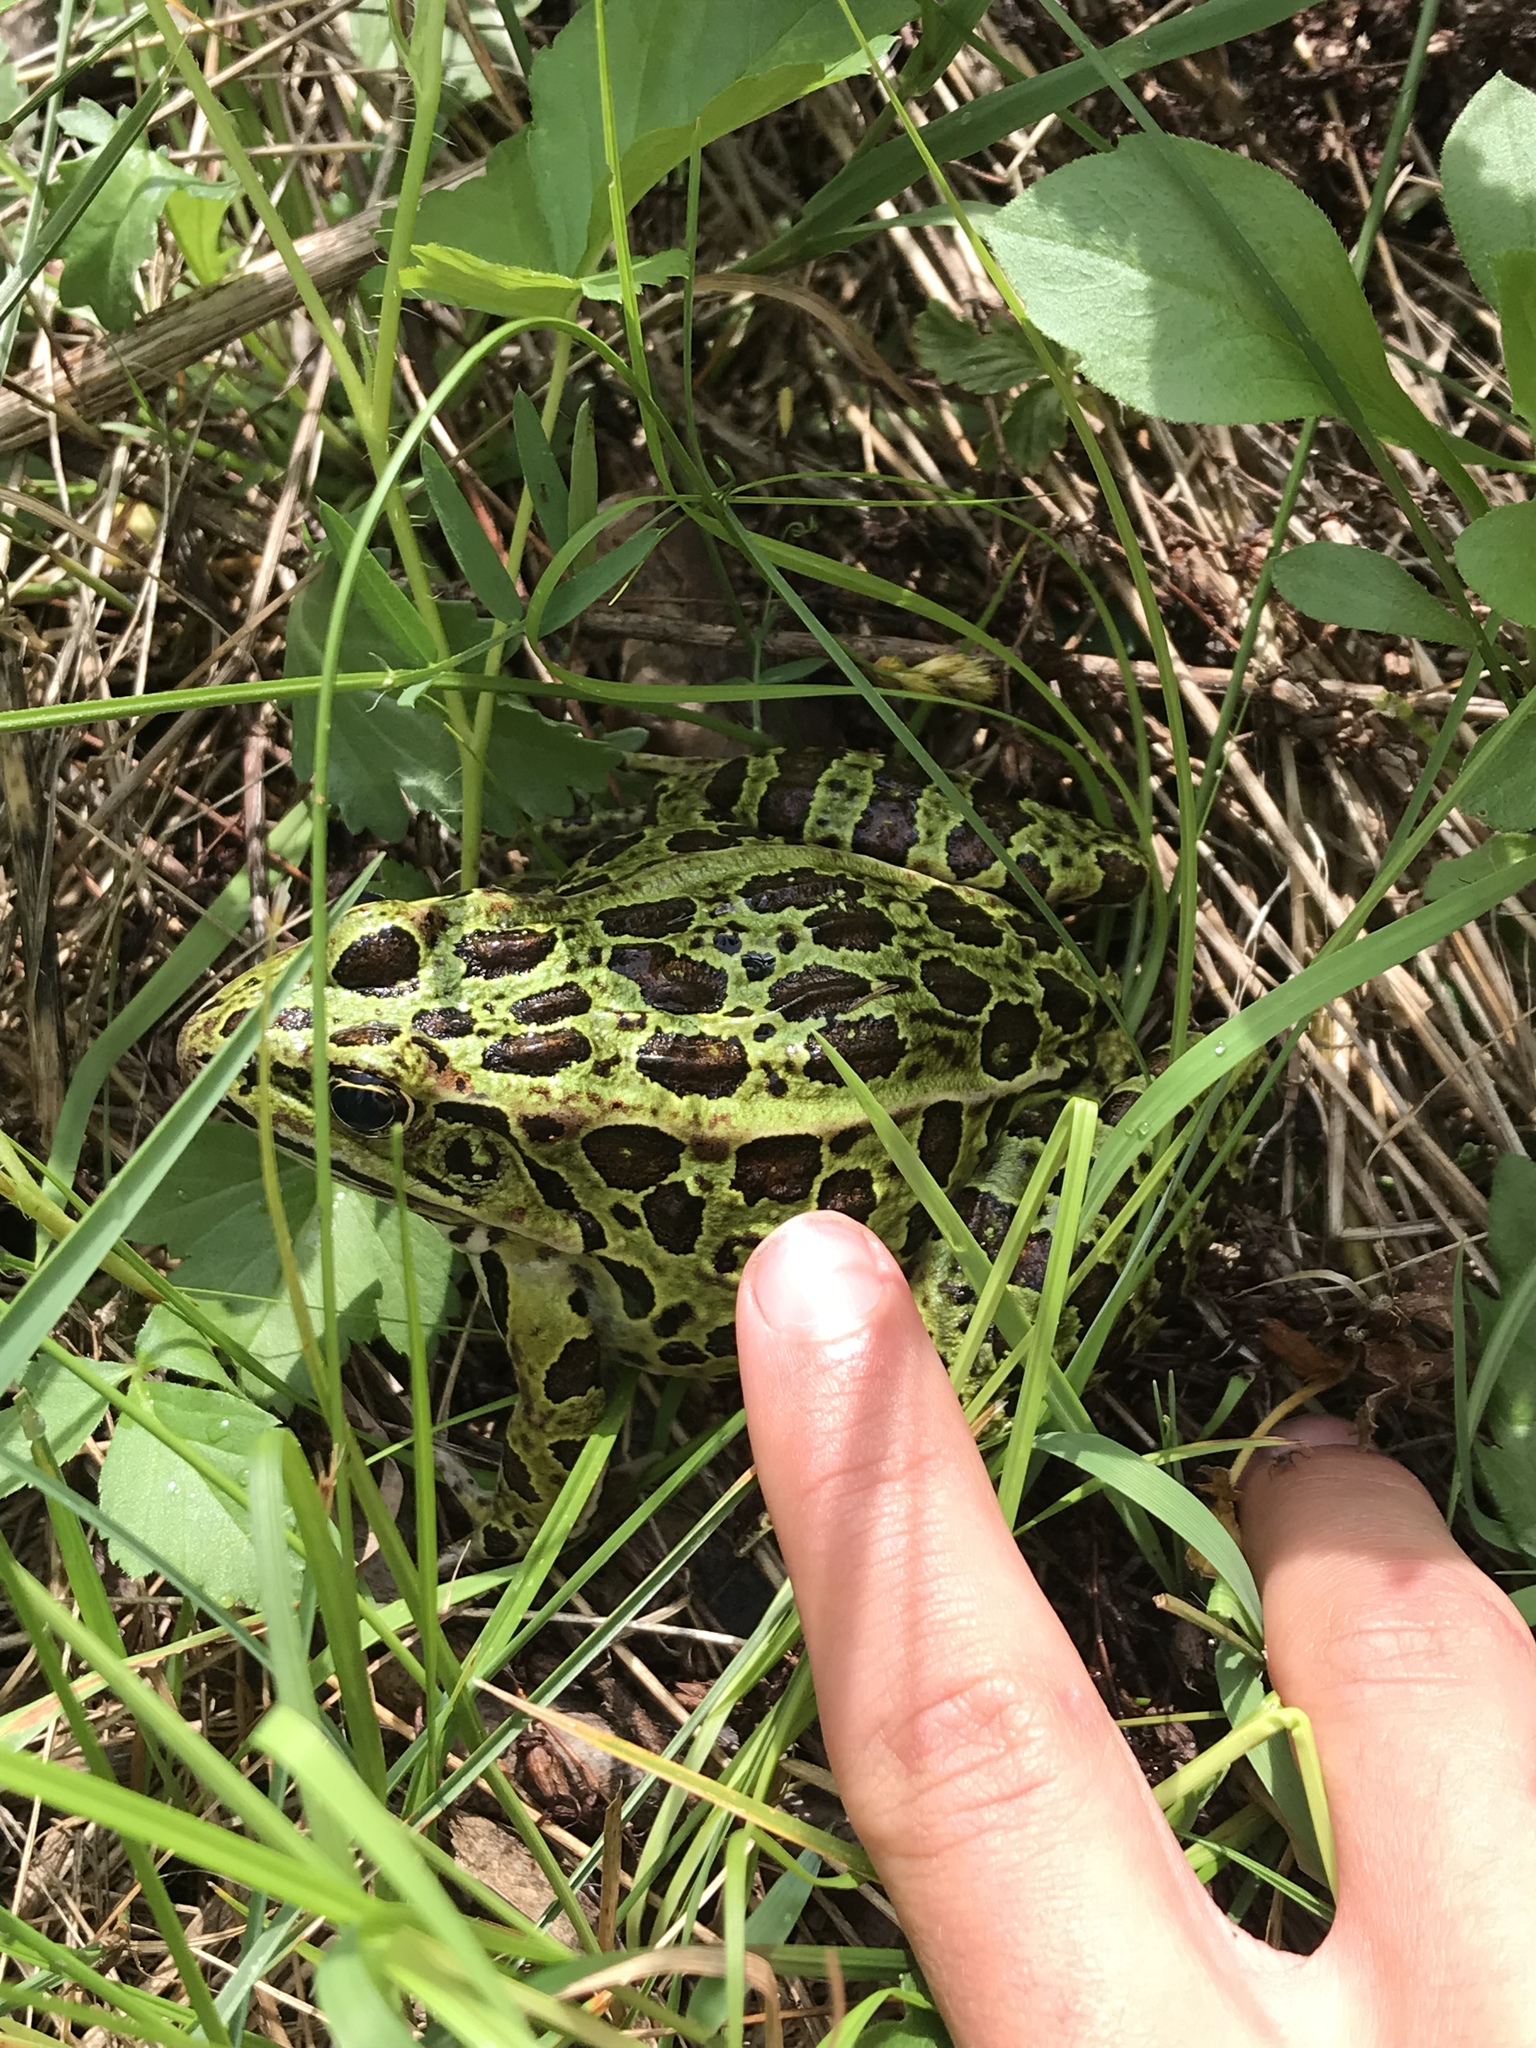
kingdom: Animalia
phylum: Chordata
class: Amphibia
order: Anura
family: Ranidae
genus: Lithobates
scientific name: Lithobates pipiens
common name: Northern leopard frog
